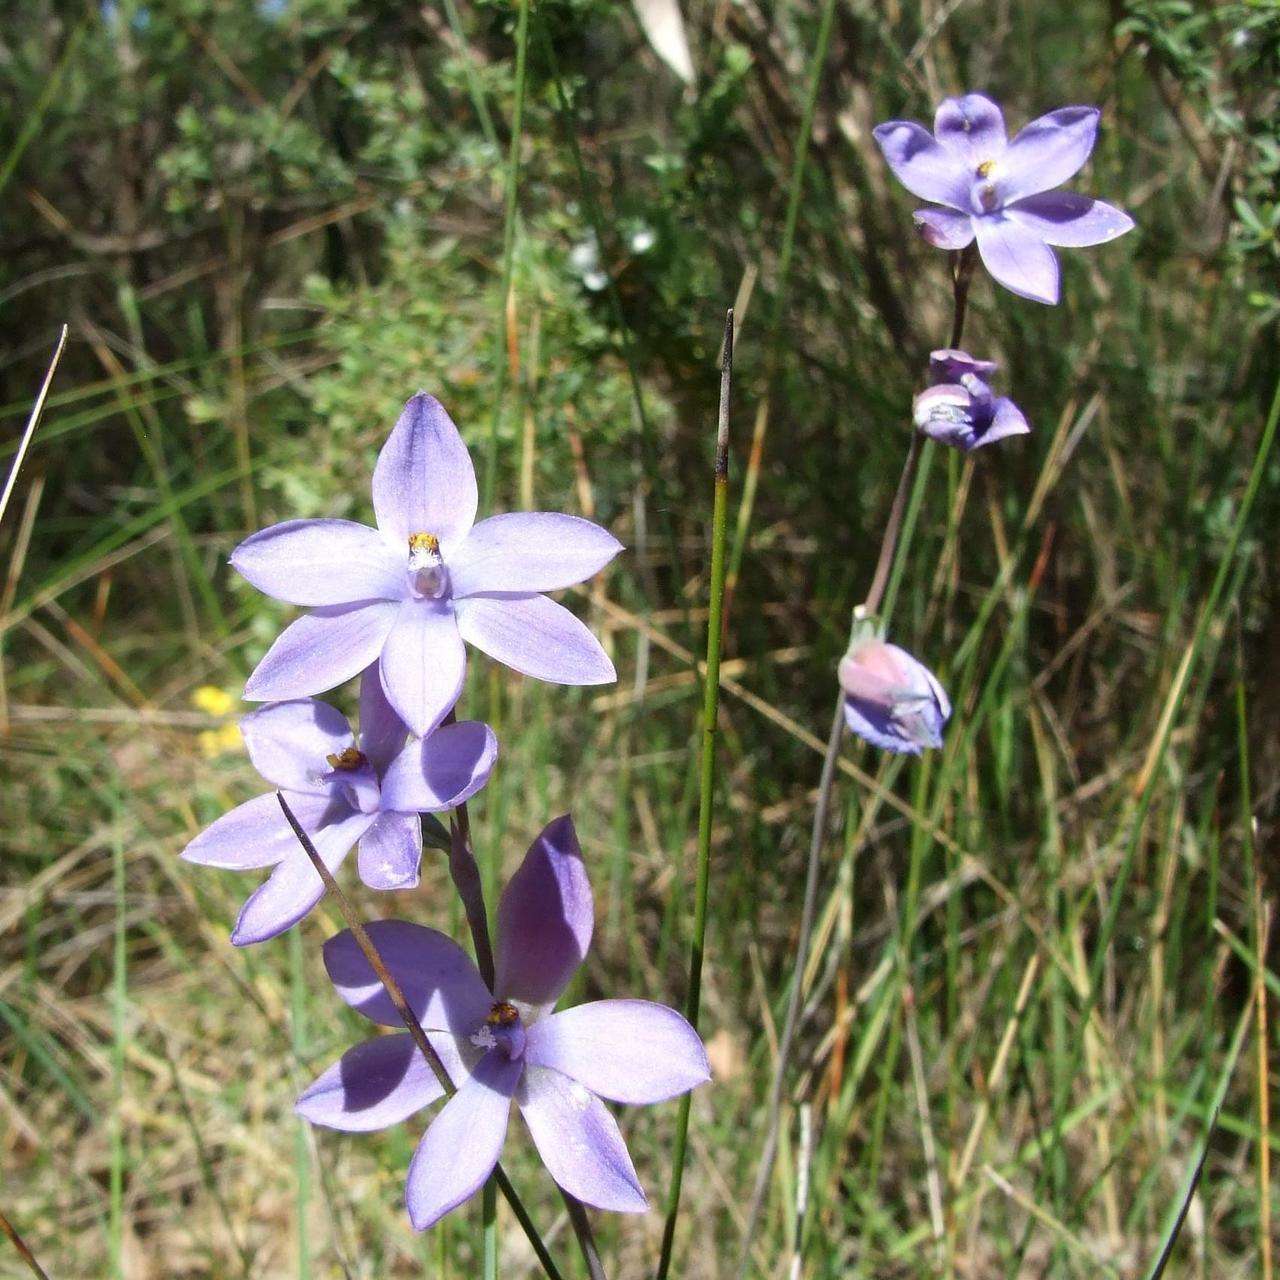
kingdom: Plantae
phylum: Tracheophyta
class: Liliopsida
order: Asparagales
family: Orchidaceae
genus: Thelymitra
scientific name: Thelymitra ixioides
